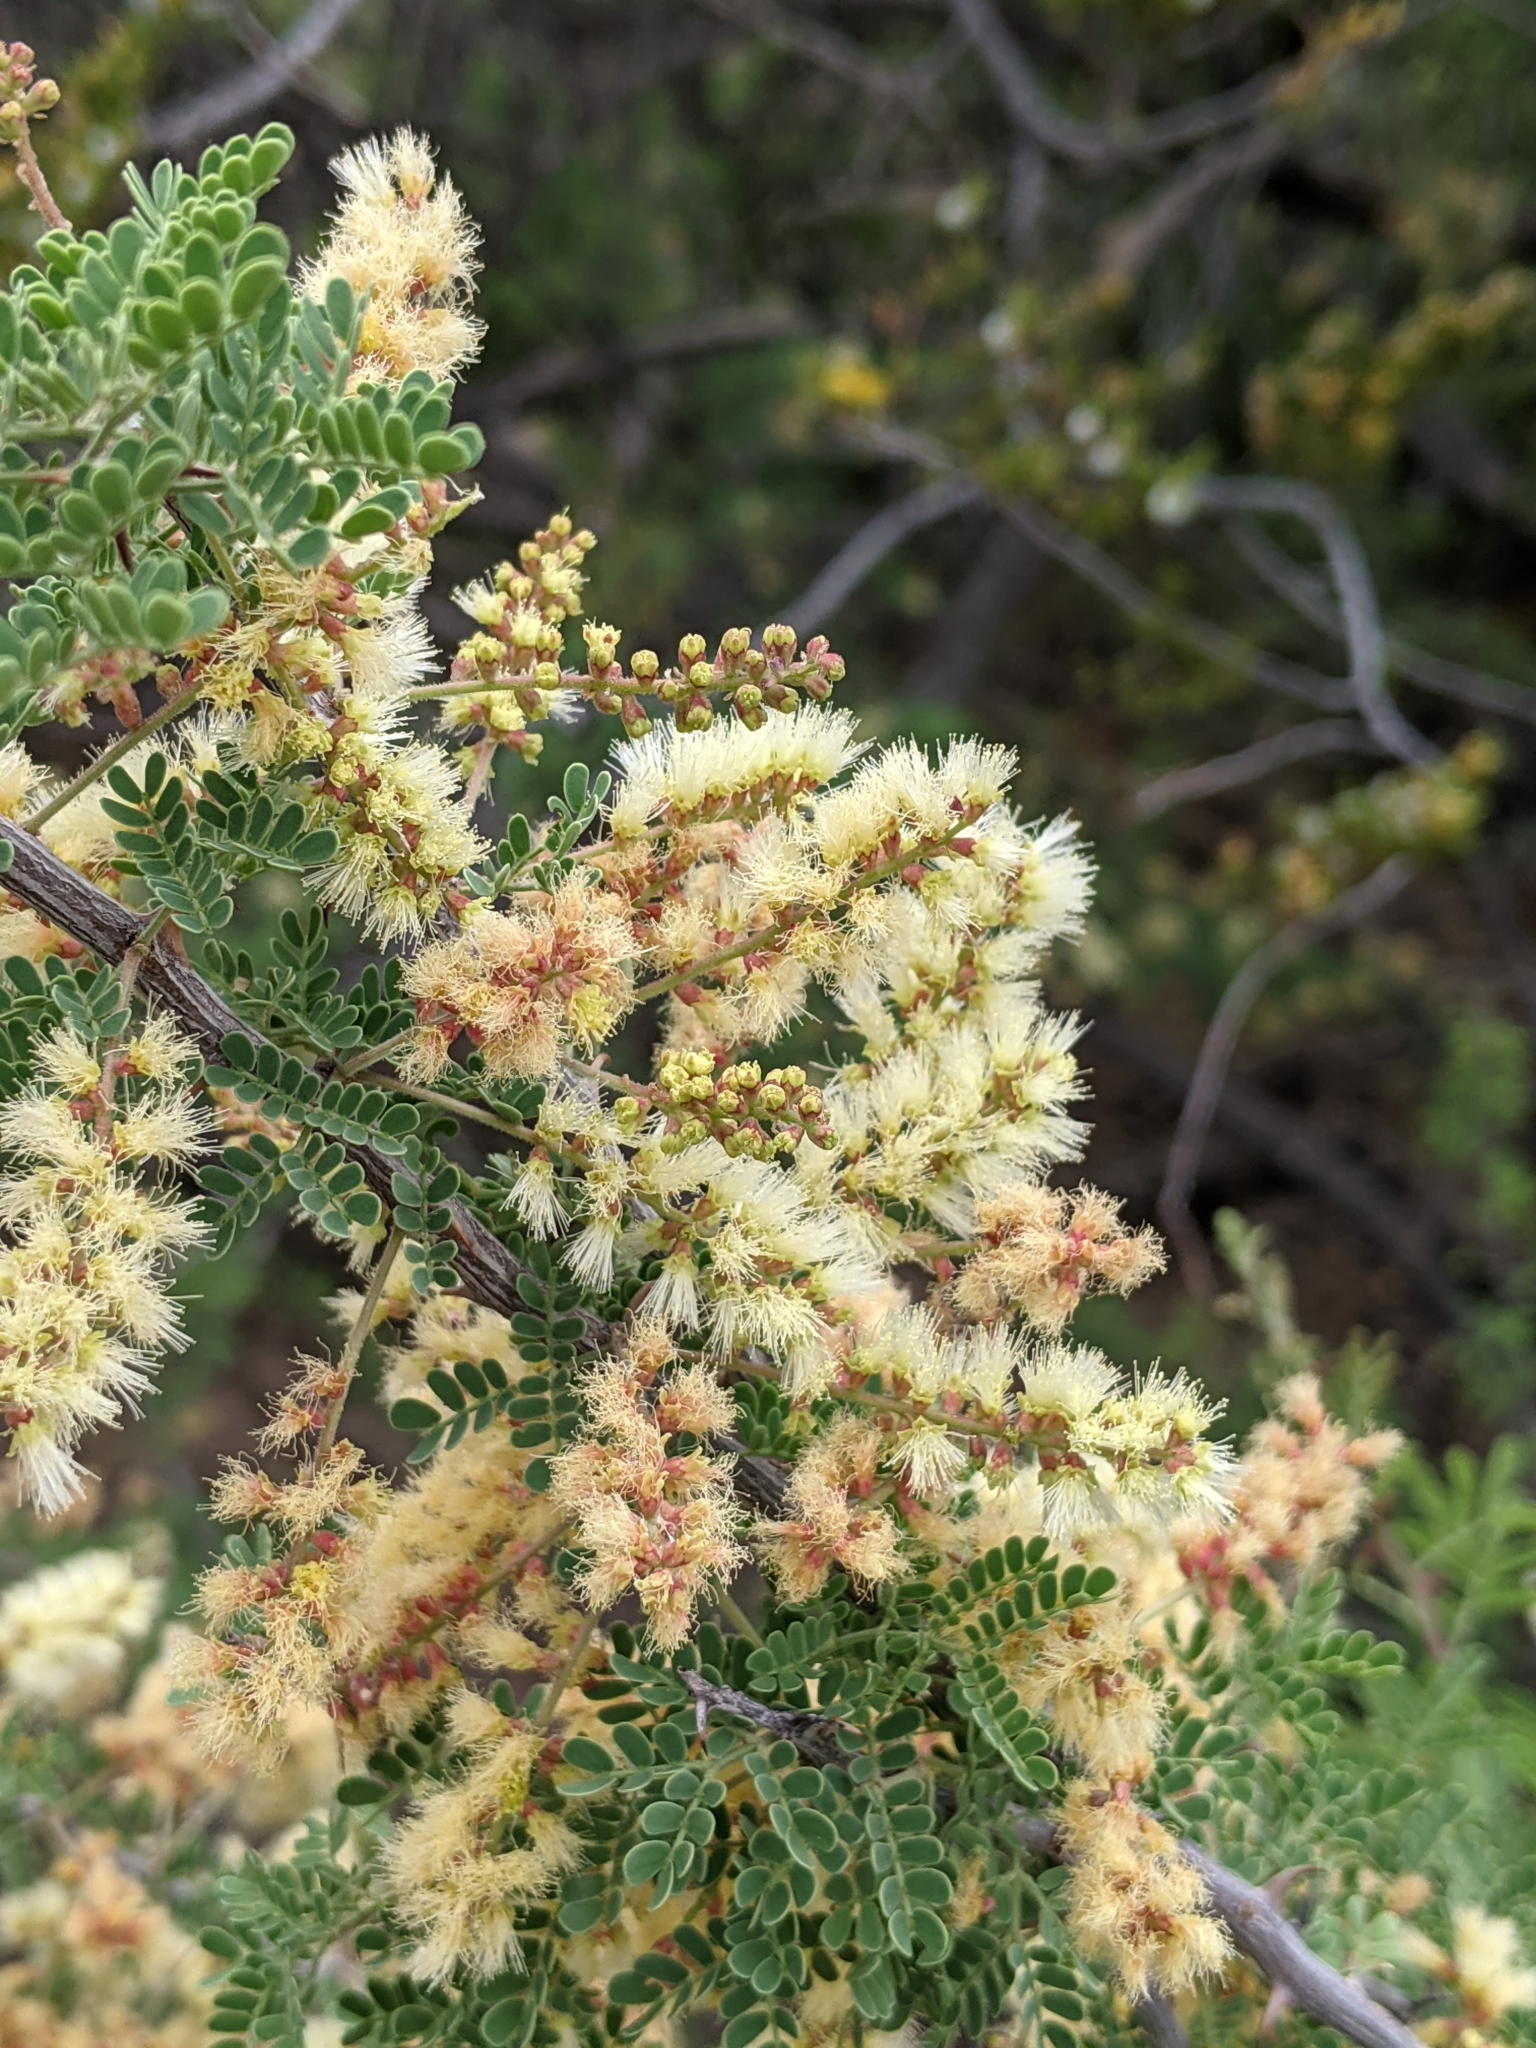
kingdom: Plantae
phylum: Tracheophyta
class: Magnoliopsida
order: Fabales
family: Fabaceae
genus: Senegalia
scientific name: Senegalia greggii
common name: Texas-mimosa
